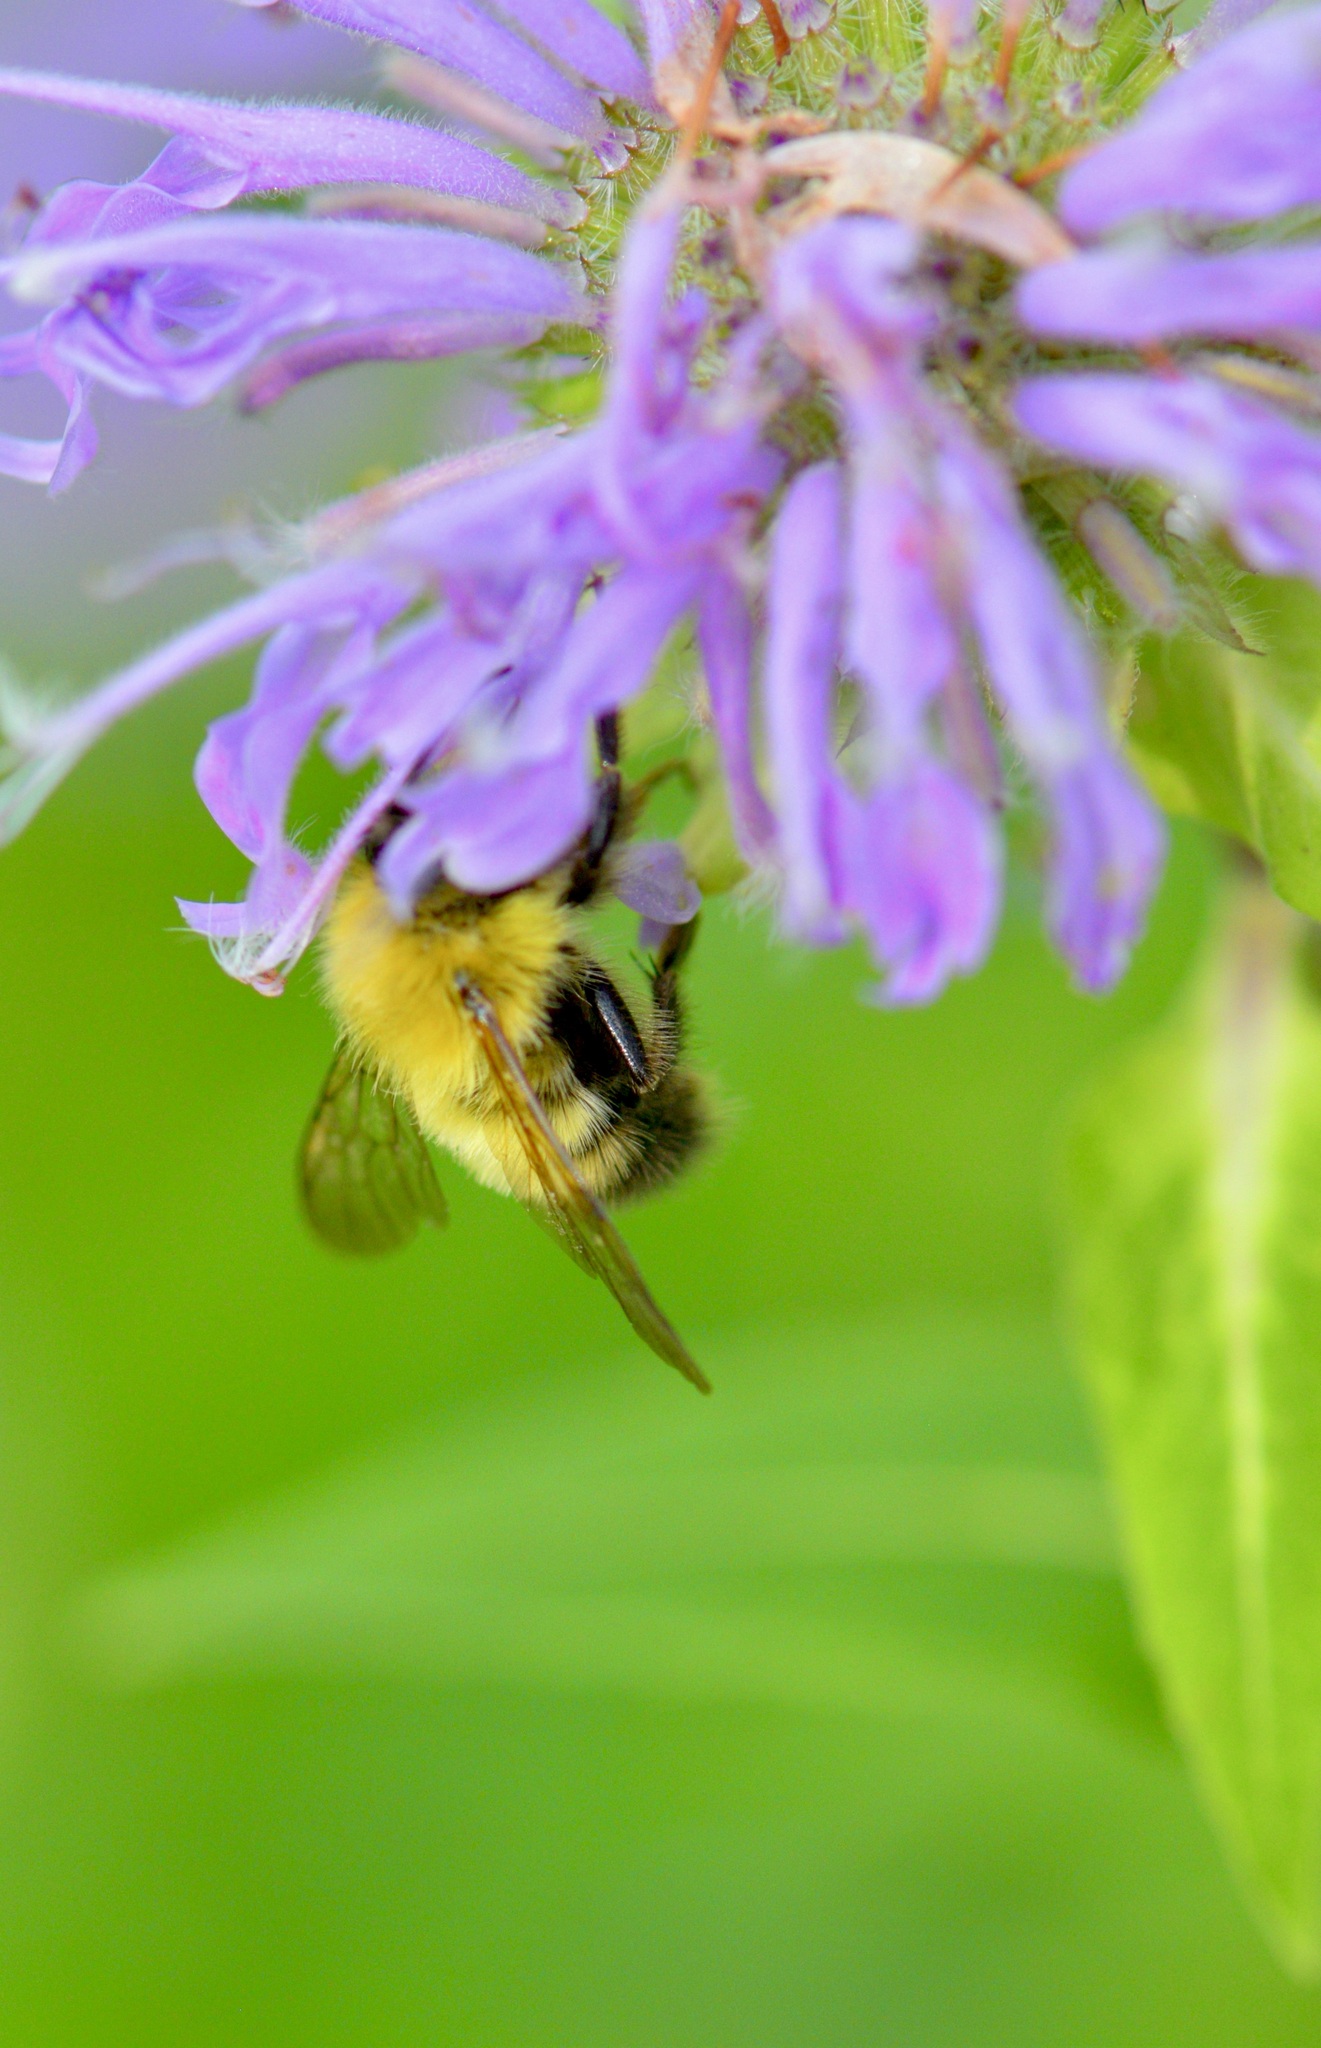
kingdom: Animalia
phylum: Arthropoda
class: Insecta
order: Hymenoptera
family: Apidae
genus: Bombus
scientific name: Bombus perplexus
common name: Confusing bumble bee
